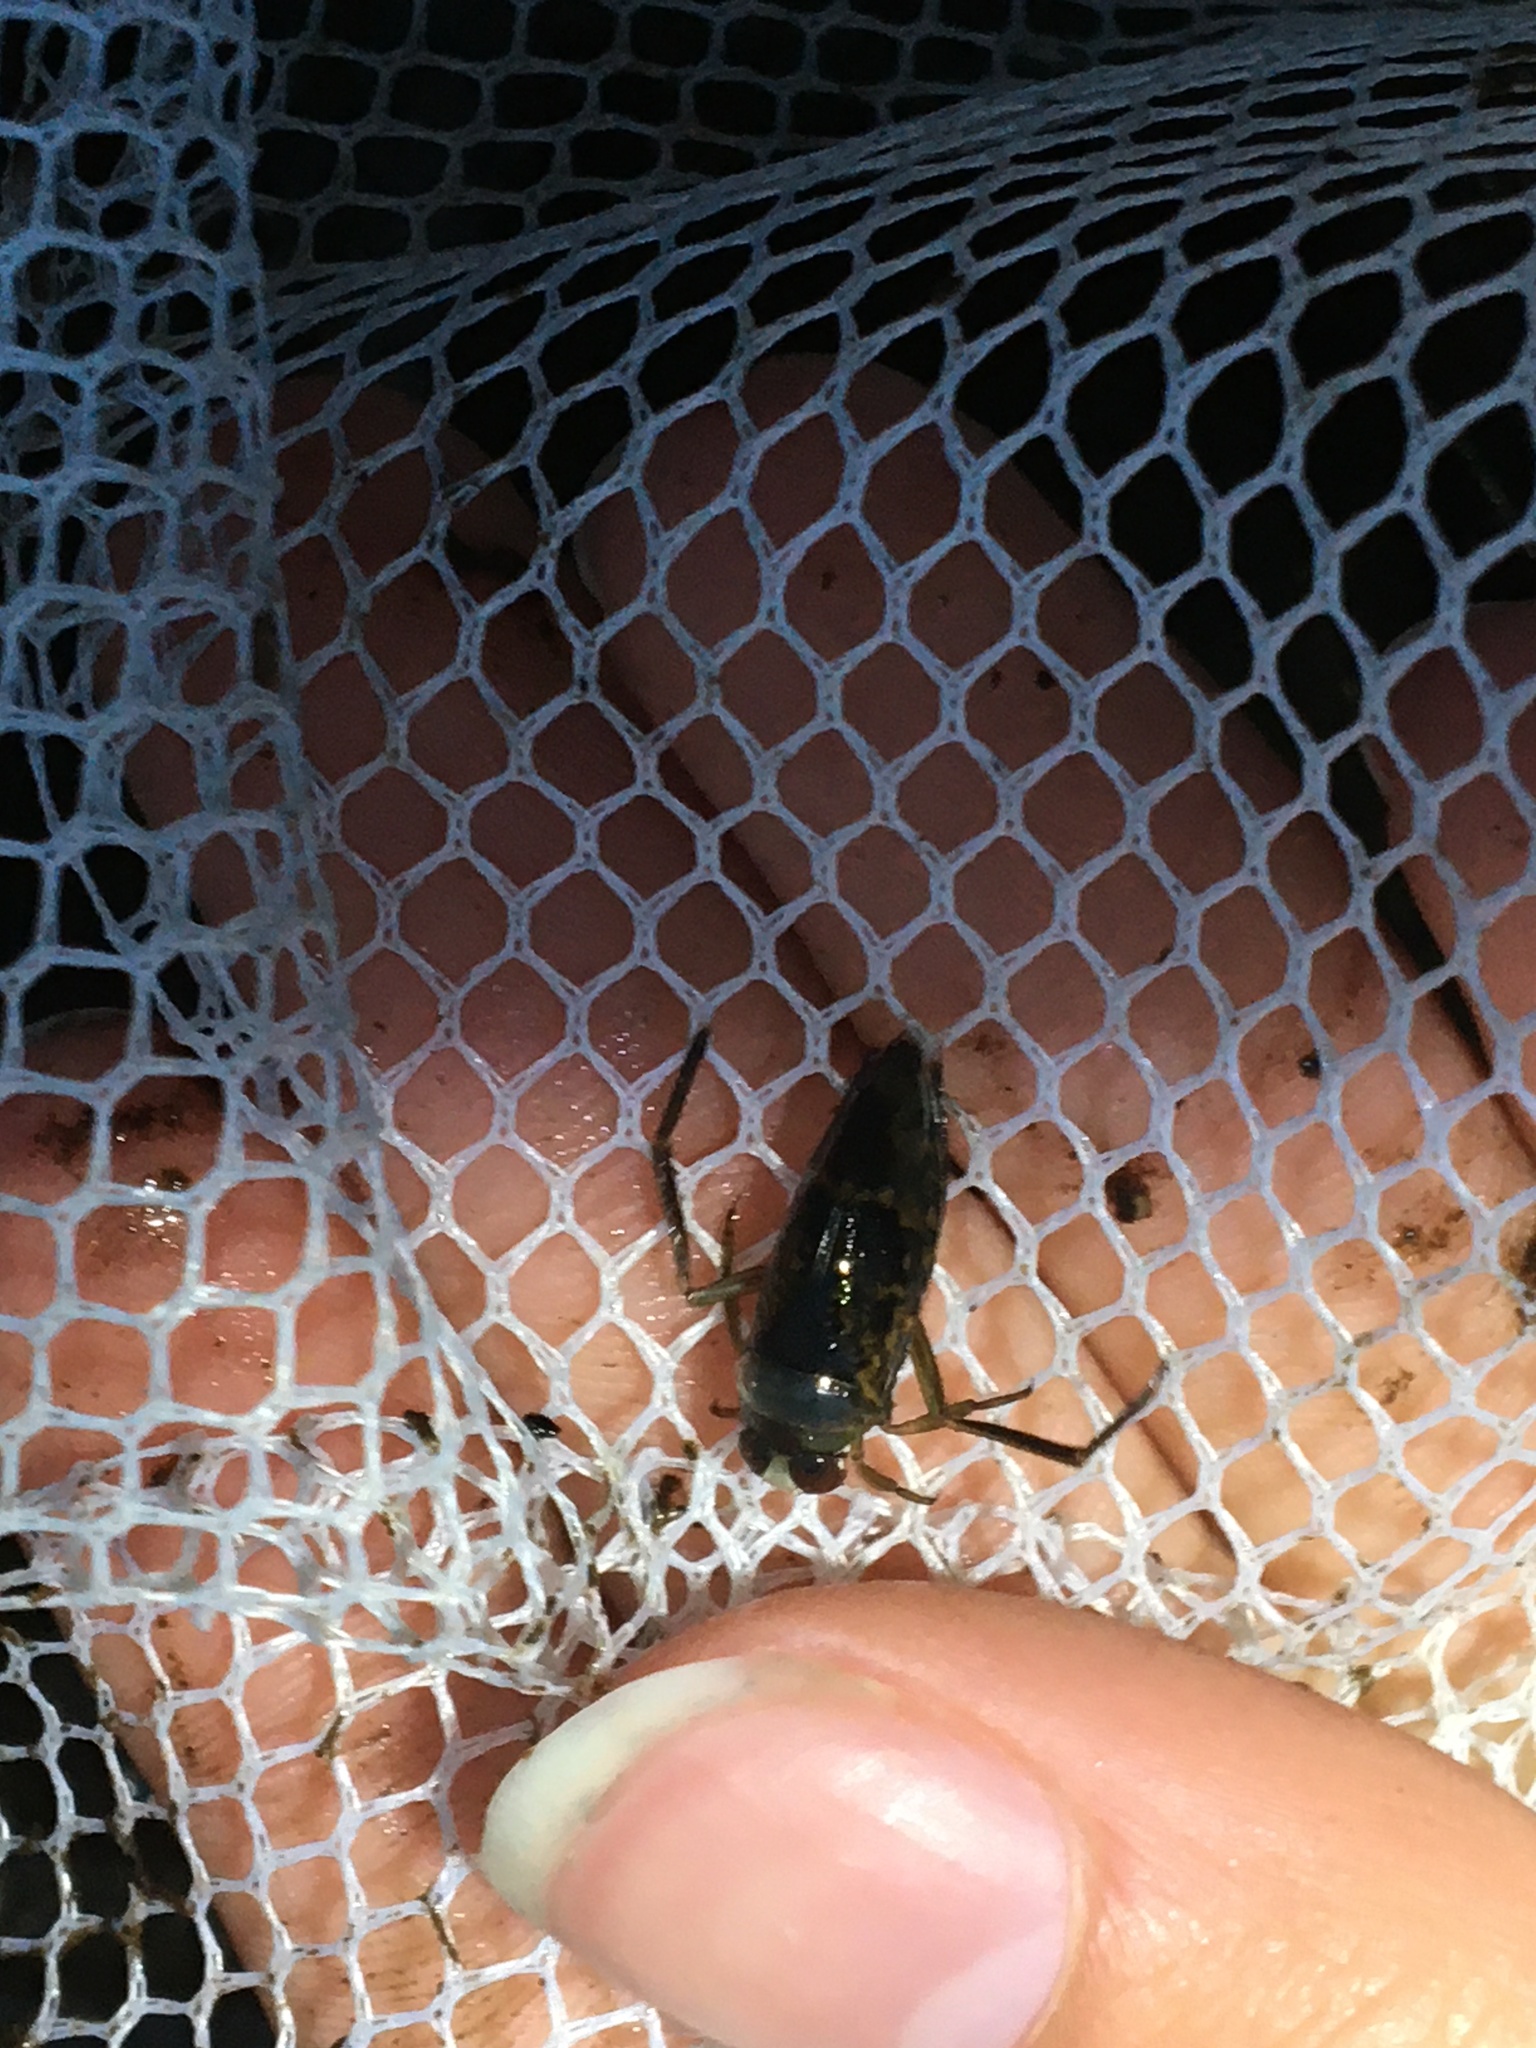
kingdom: Animalia
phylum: Arthropoda
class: Insecta
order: Hemiptera
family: Notonectidae
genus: Notonecta
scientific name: Notonecta irrorata
